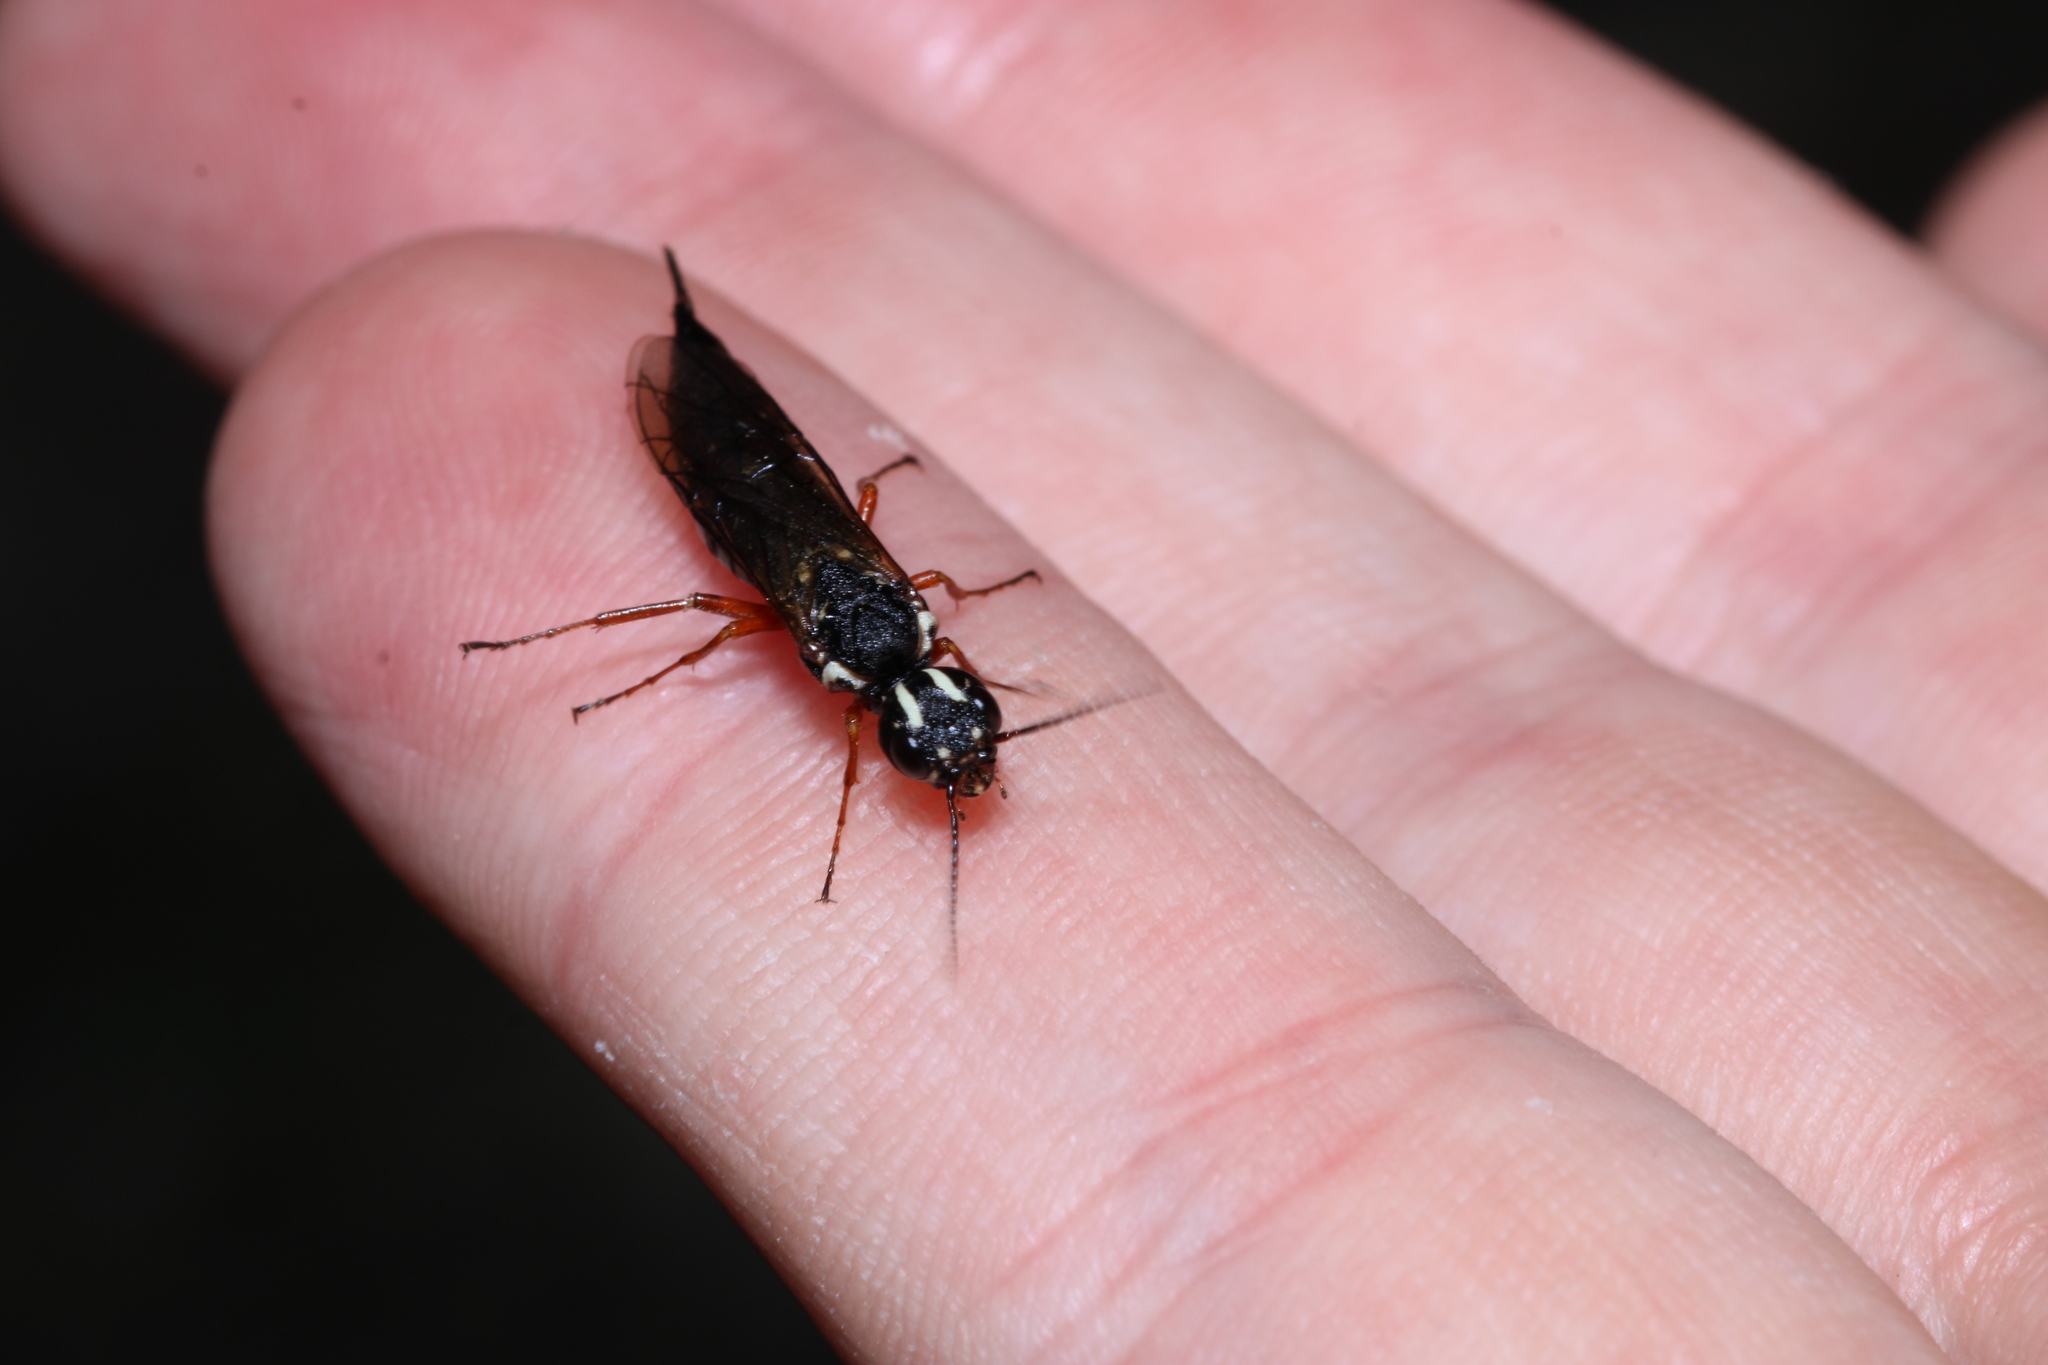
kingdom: Animalia
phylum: Arthropoda
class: Insecta
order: Hymenoptera
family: Xiphydriidae
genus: Xiphydria
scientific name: Xiphydria picta
